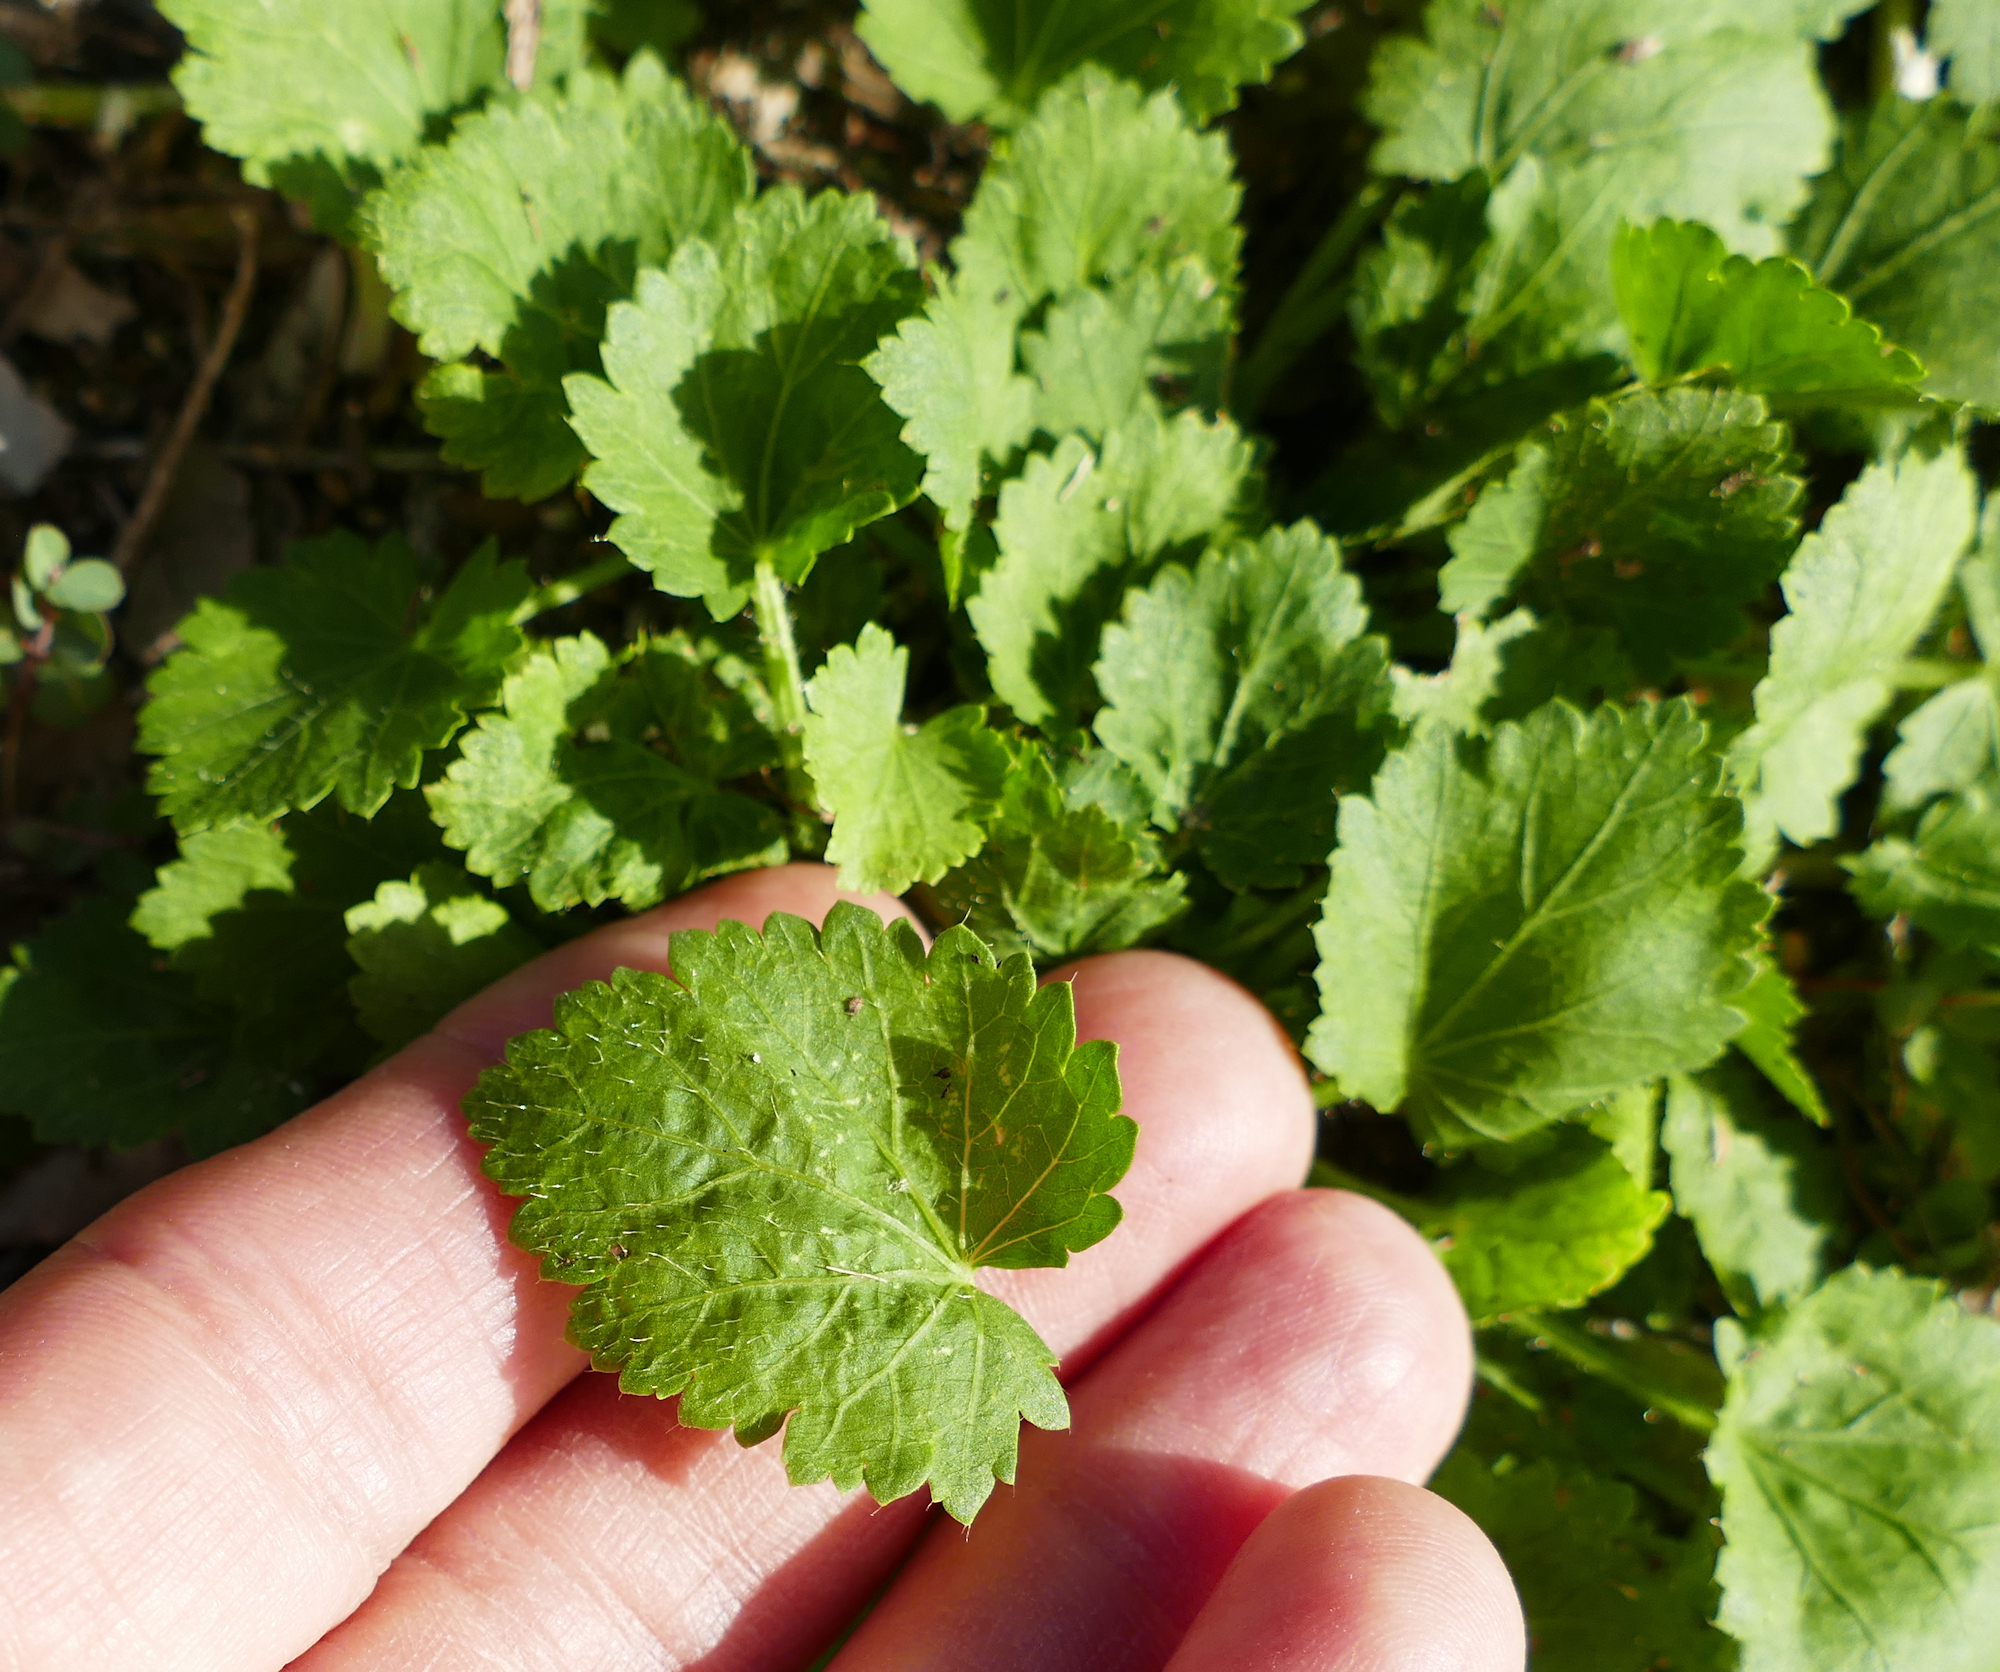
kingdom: Plantae
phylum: Tracheophyta
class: Magnoliopsida
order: Malvales
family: Malvaceae
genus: Modiola
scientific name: Modiola caroliniana
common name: Carolina bristlemallow
